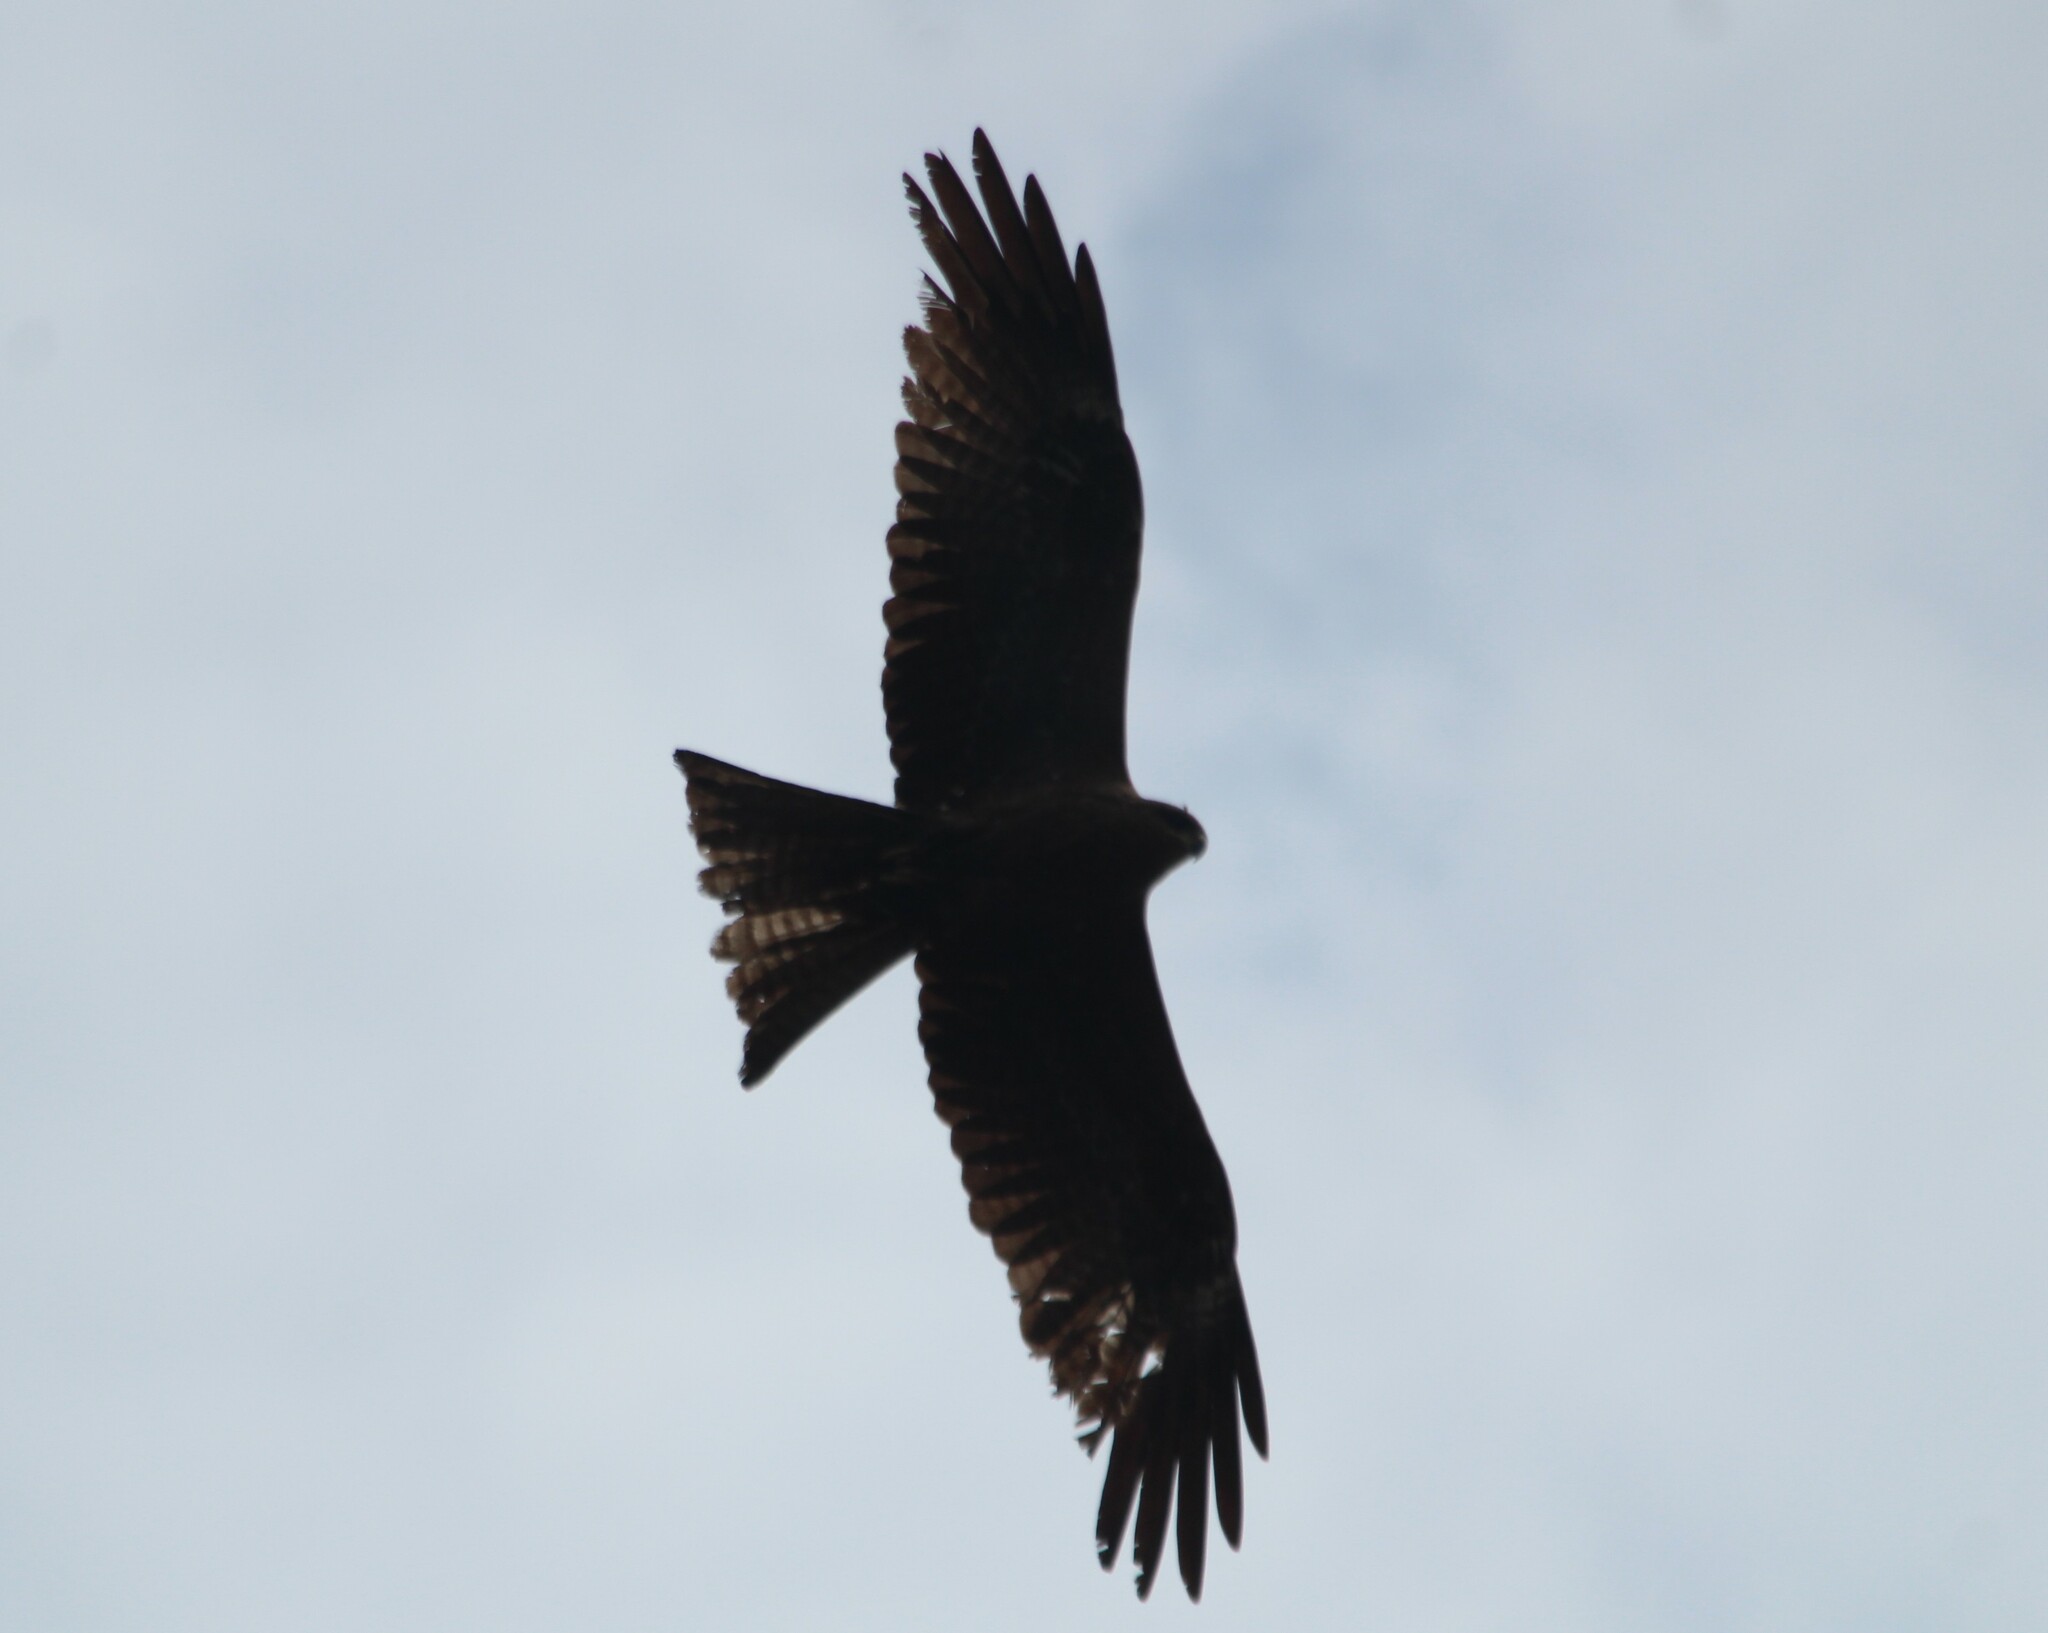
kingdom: Animalia
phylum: Chordata
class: Aves
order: Accipitriformes
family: Accipitridae
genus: Milvus
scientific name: Milvus migrans
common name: Black kite
